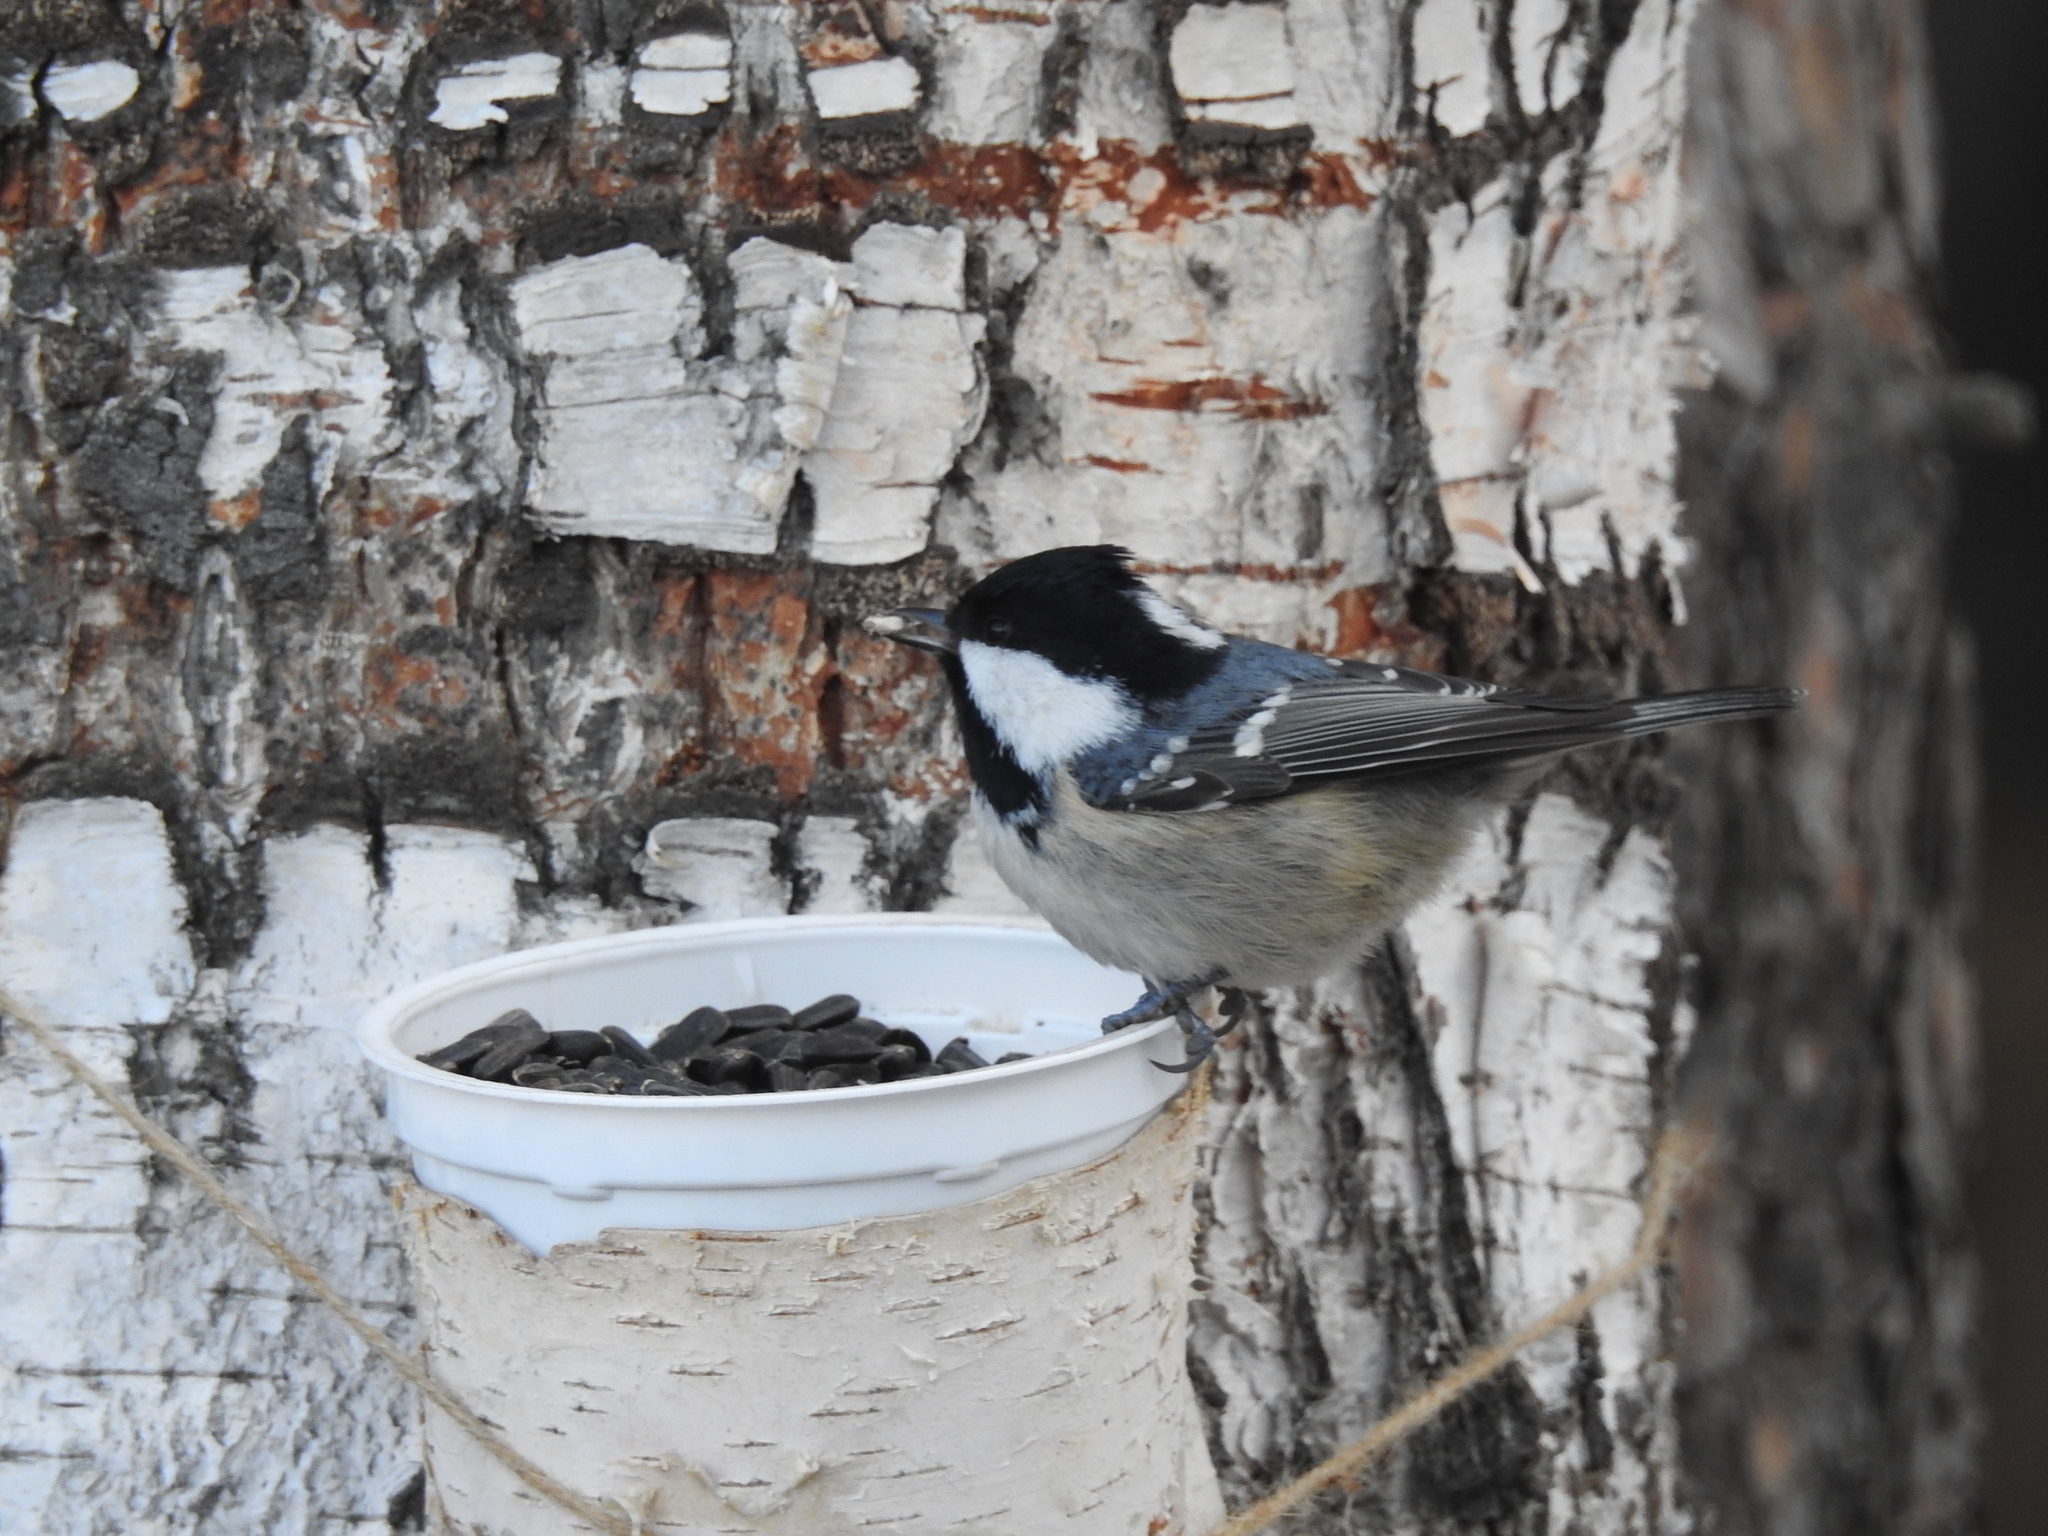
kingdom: Animalia
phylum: Chordata
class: Aves
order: Passeriformes
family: Paridae
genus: Periparus
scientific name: Periparus ater
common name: Coal tit
